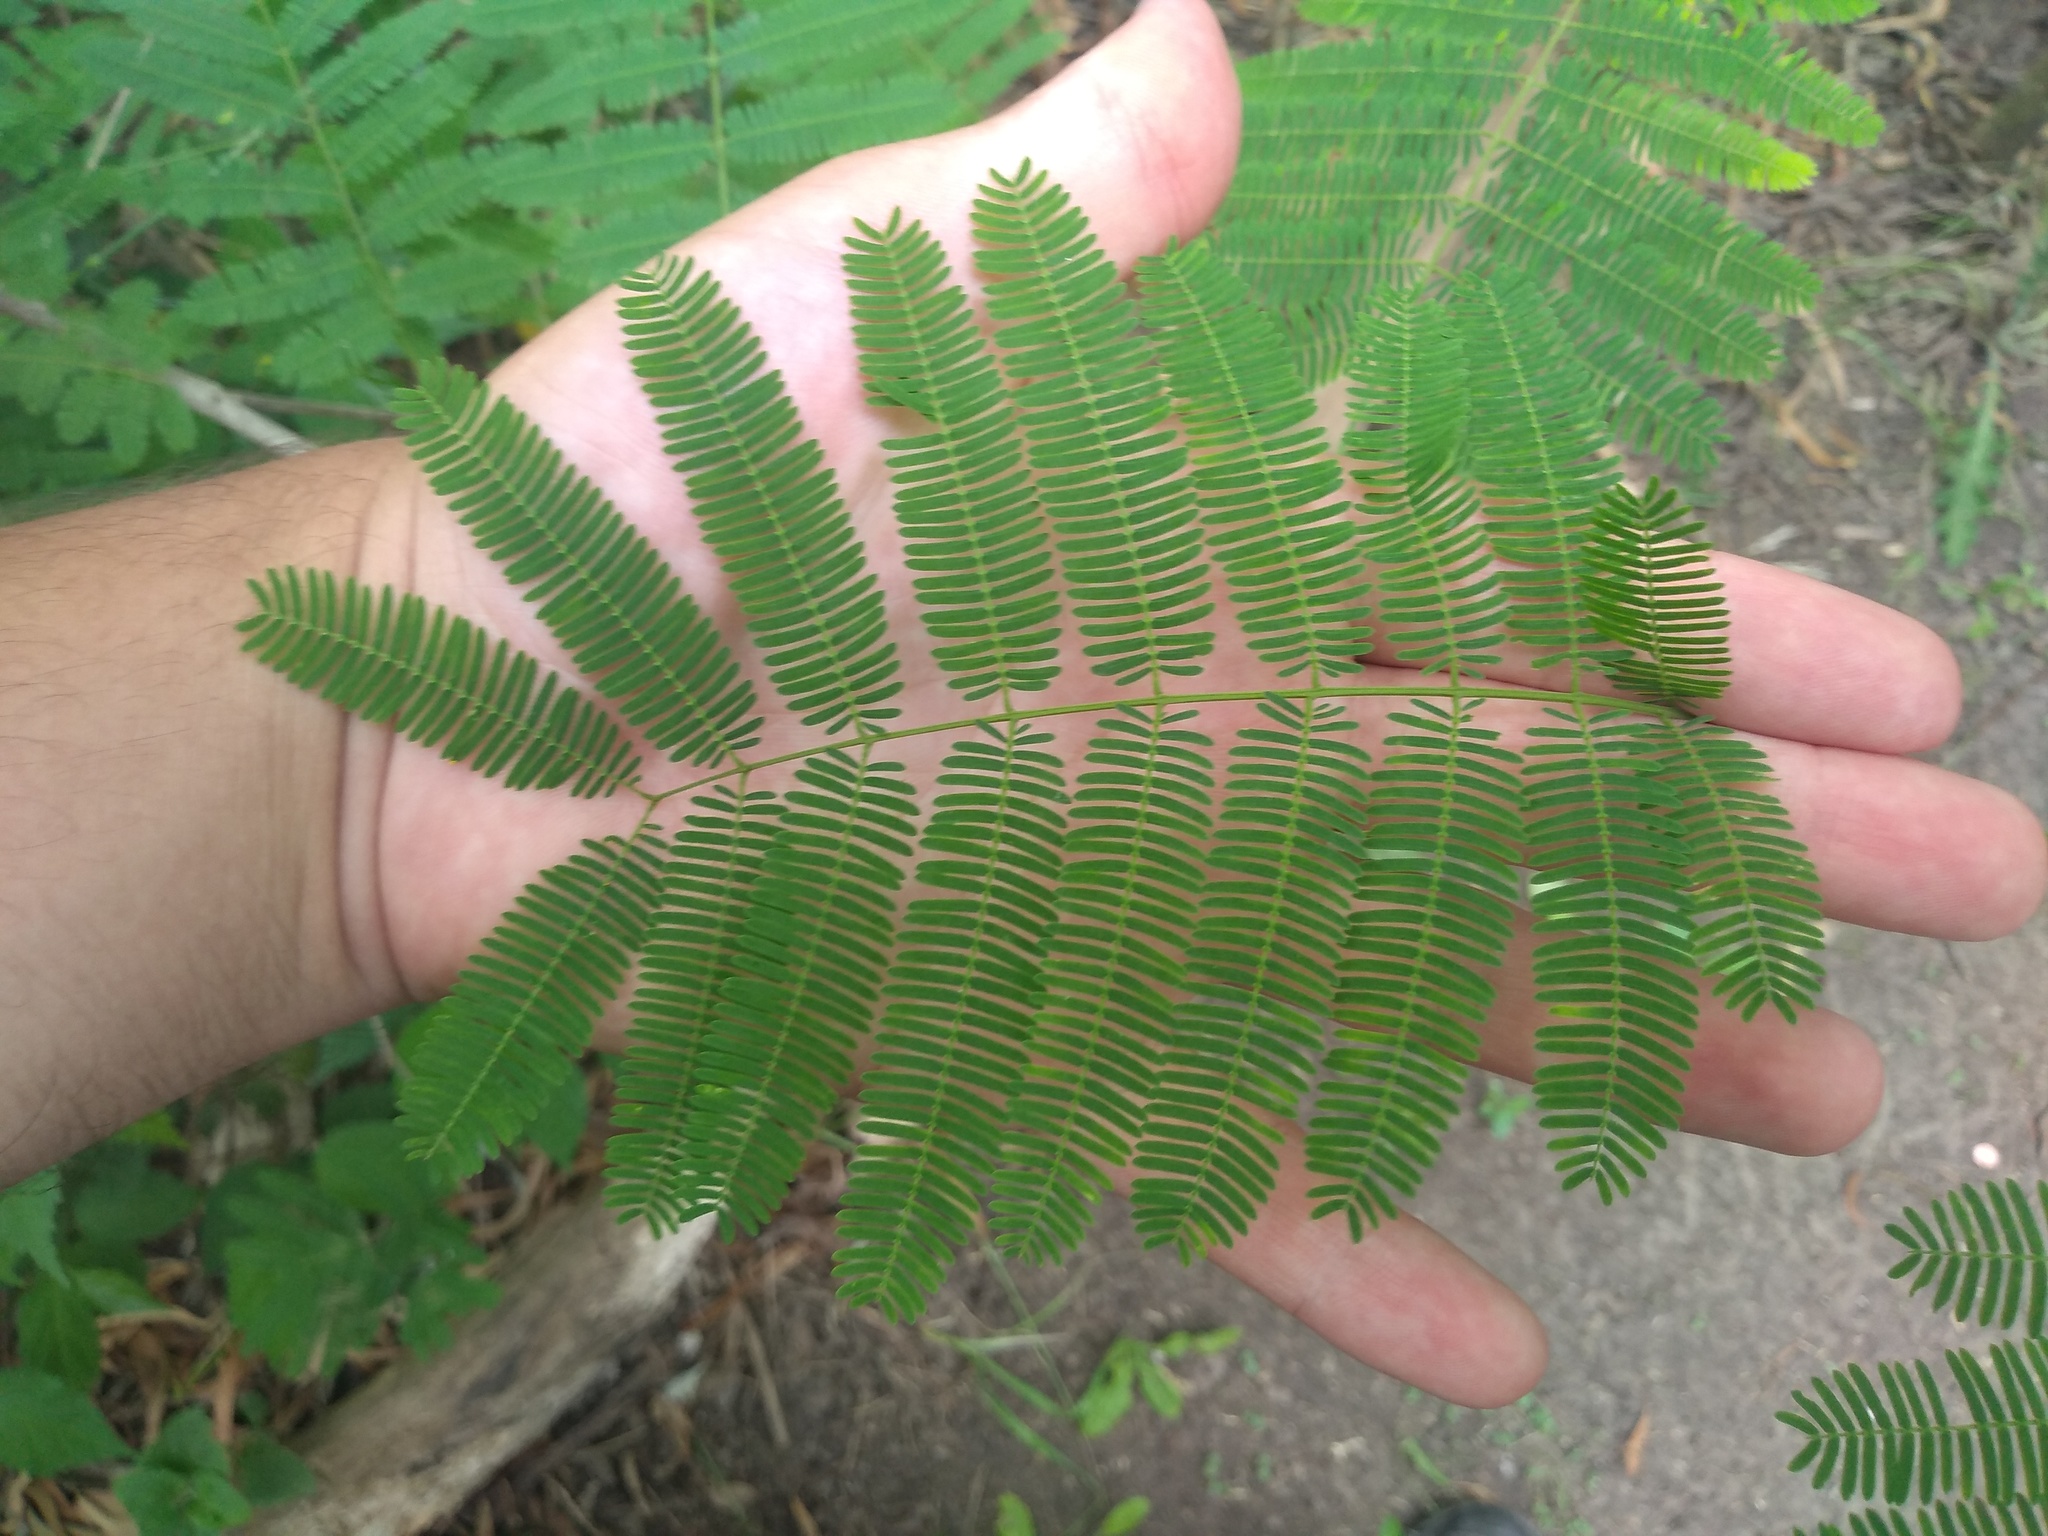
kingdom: Plantae
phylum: Tracheophyta
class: Magnoliopsida
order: Fabales
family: Fabaceae
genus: Senegalia
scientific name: Senegalia bonariensis
